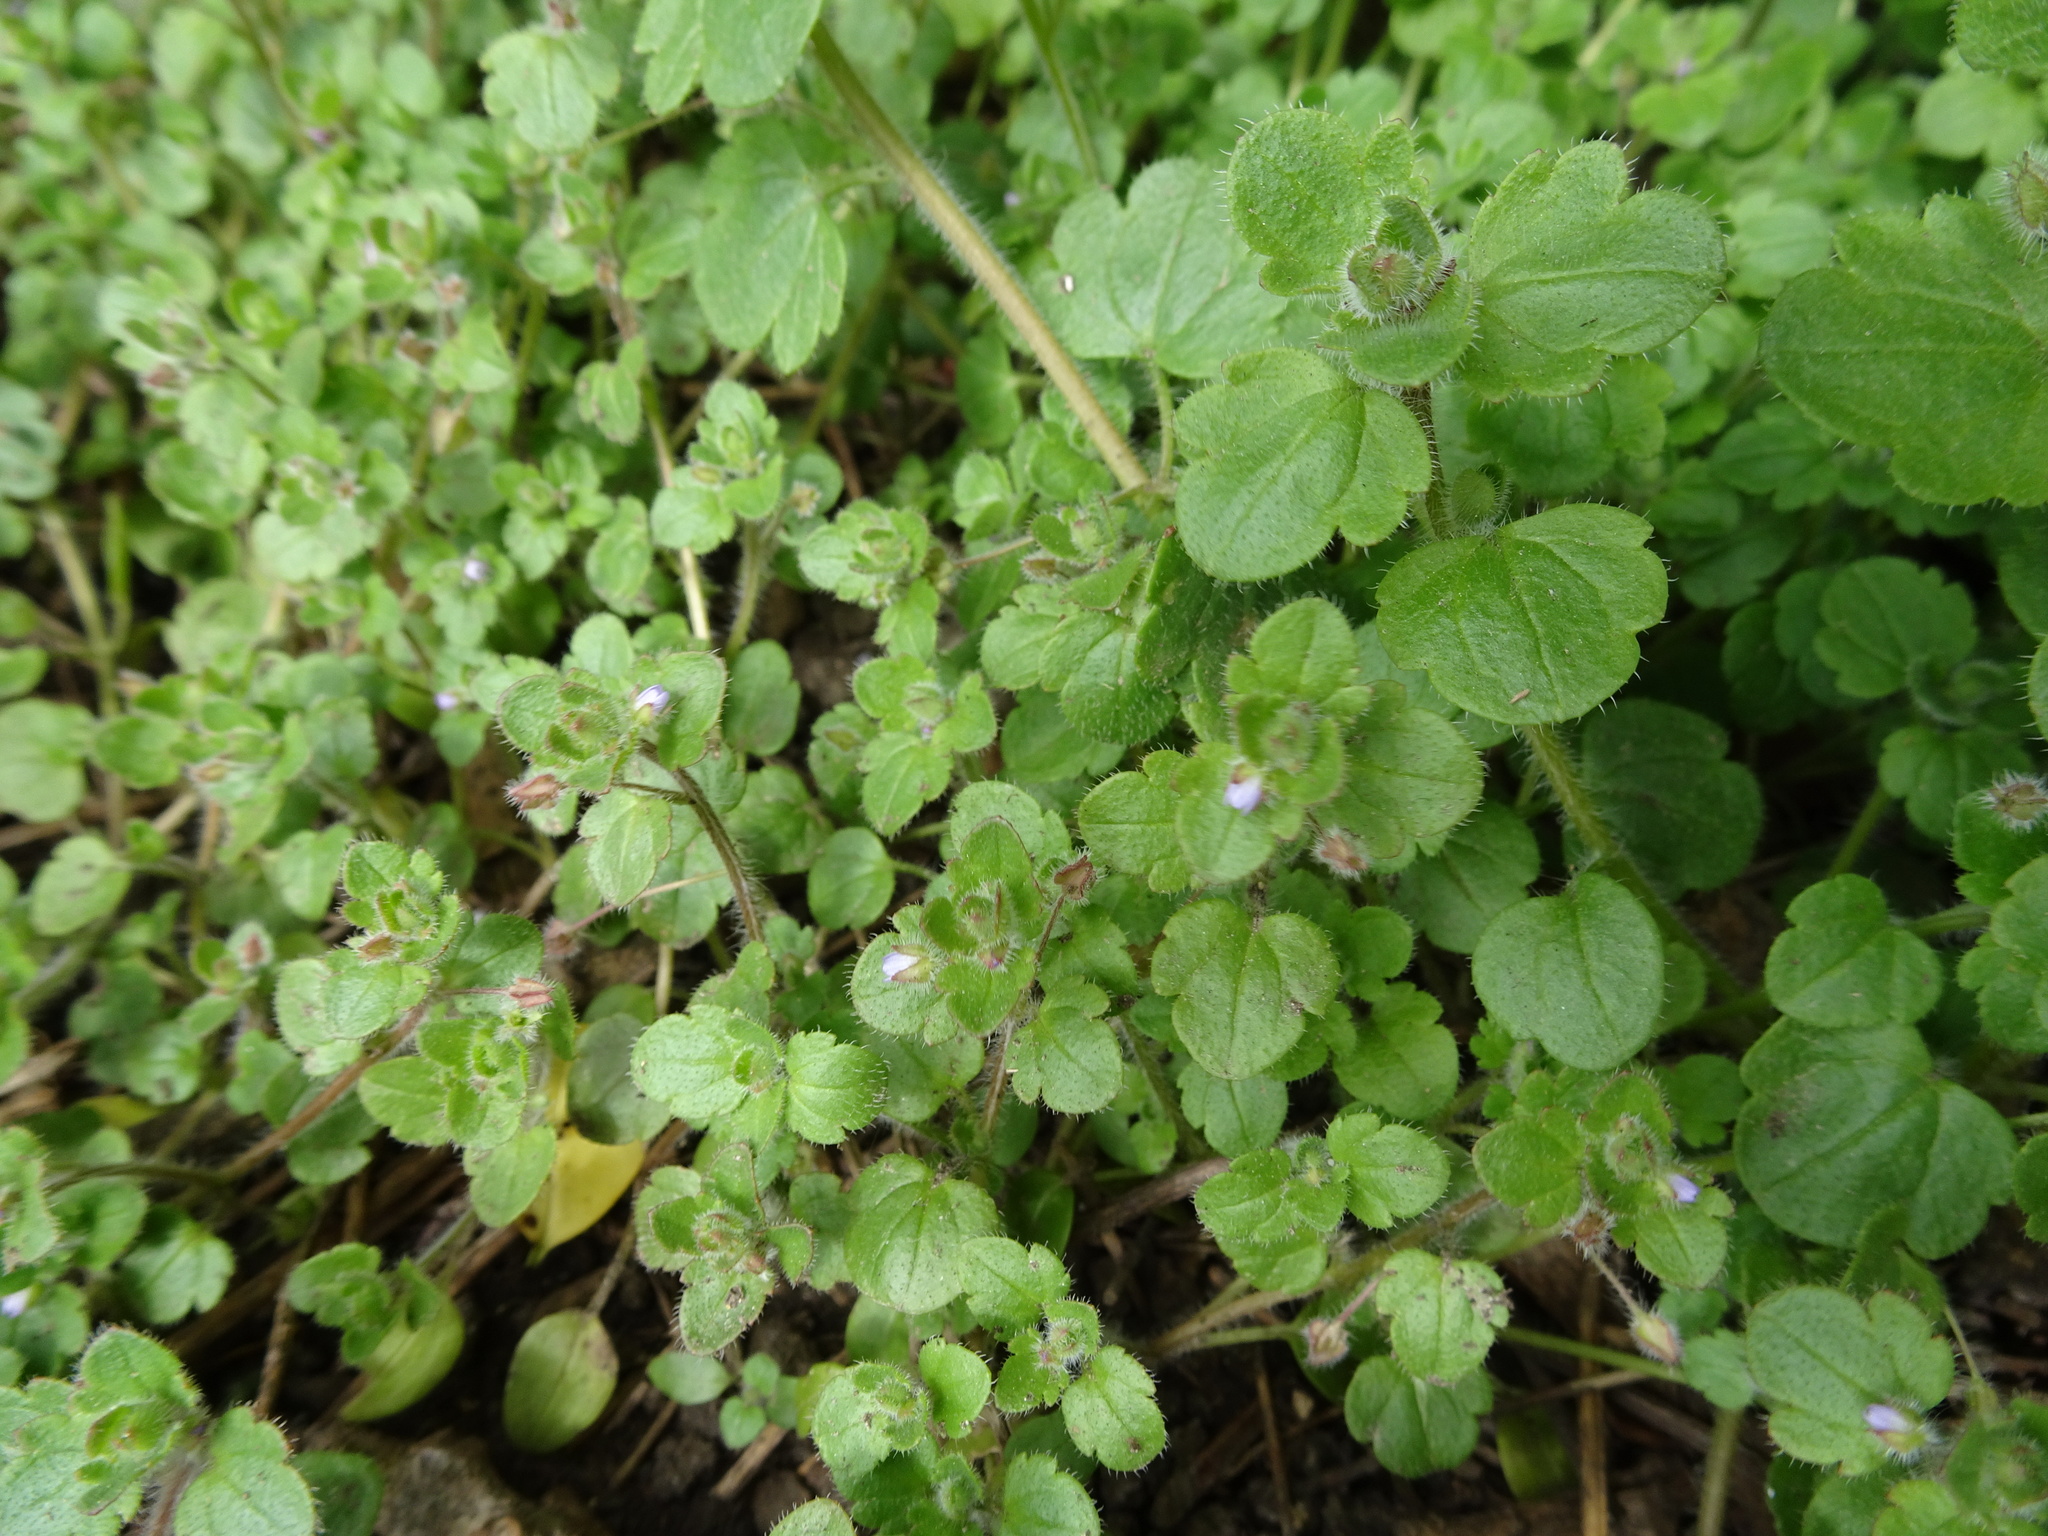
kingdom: Plantae
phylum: Tracheophyta
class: Magnoliopsida
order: Lamiales
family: Plantaginaceae
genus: Veronica
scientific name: Veronica sublobata
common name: False ivy-leaved speedwell
